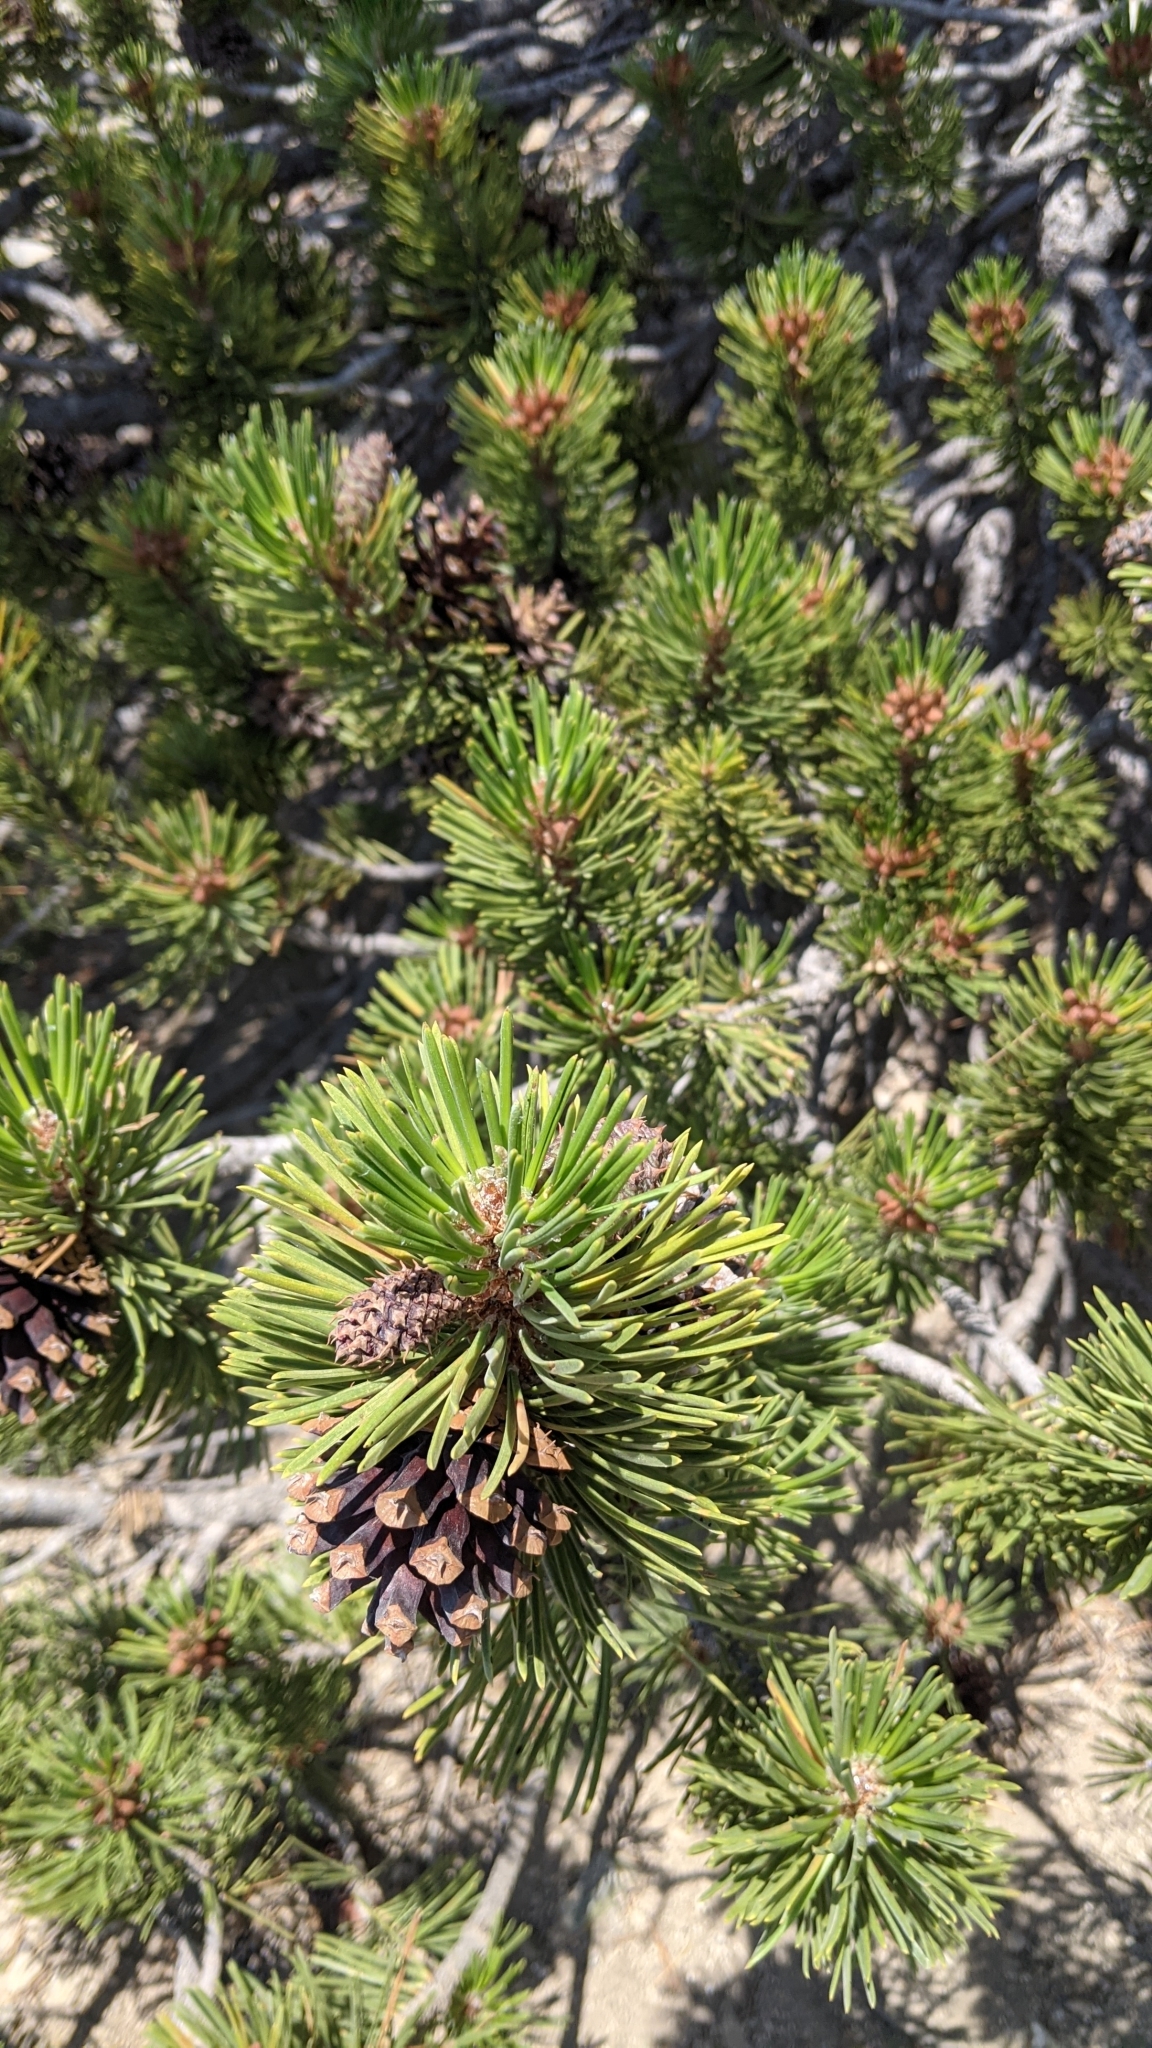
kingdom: Plantae
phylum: Tracheophyta
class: Pinopsida
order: Pinales
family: Pinaceae
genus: Pinus
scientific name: Pinus contorta
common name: Lodgepole pine
